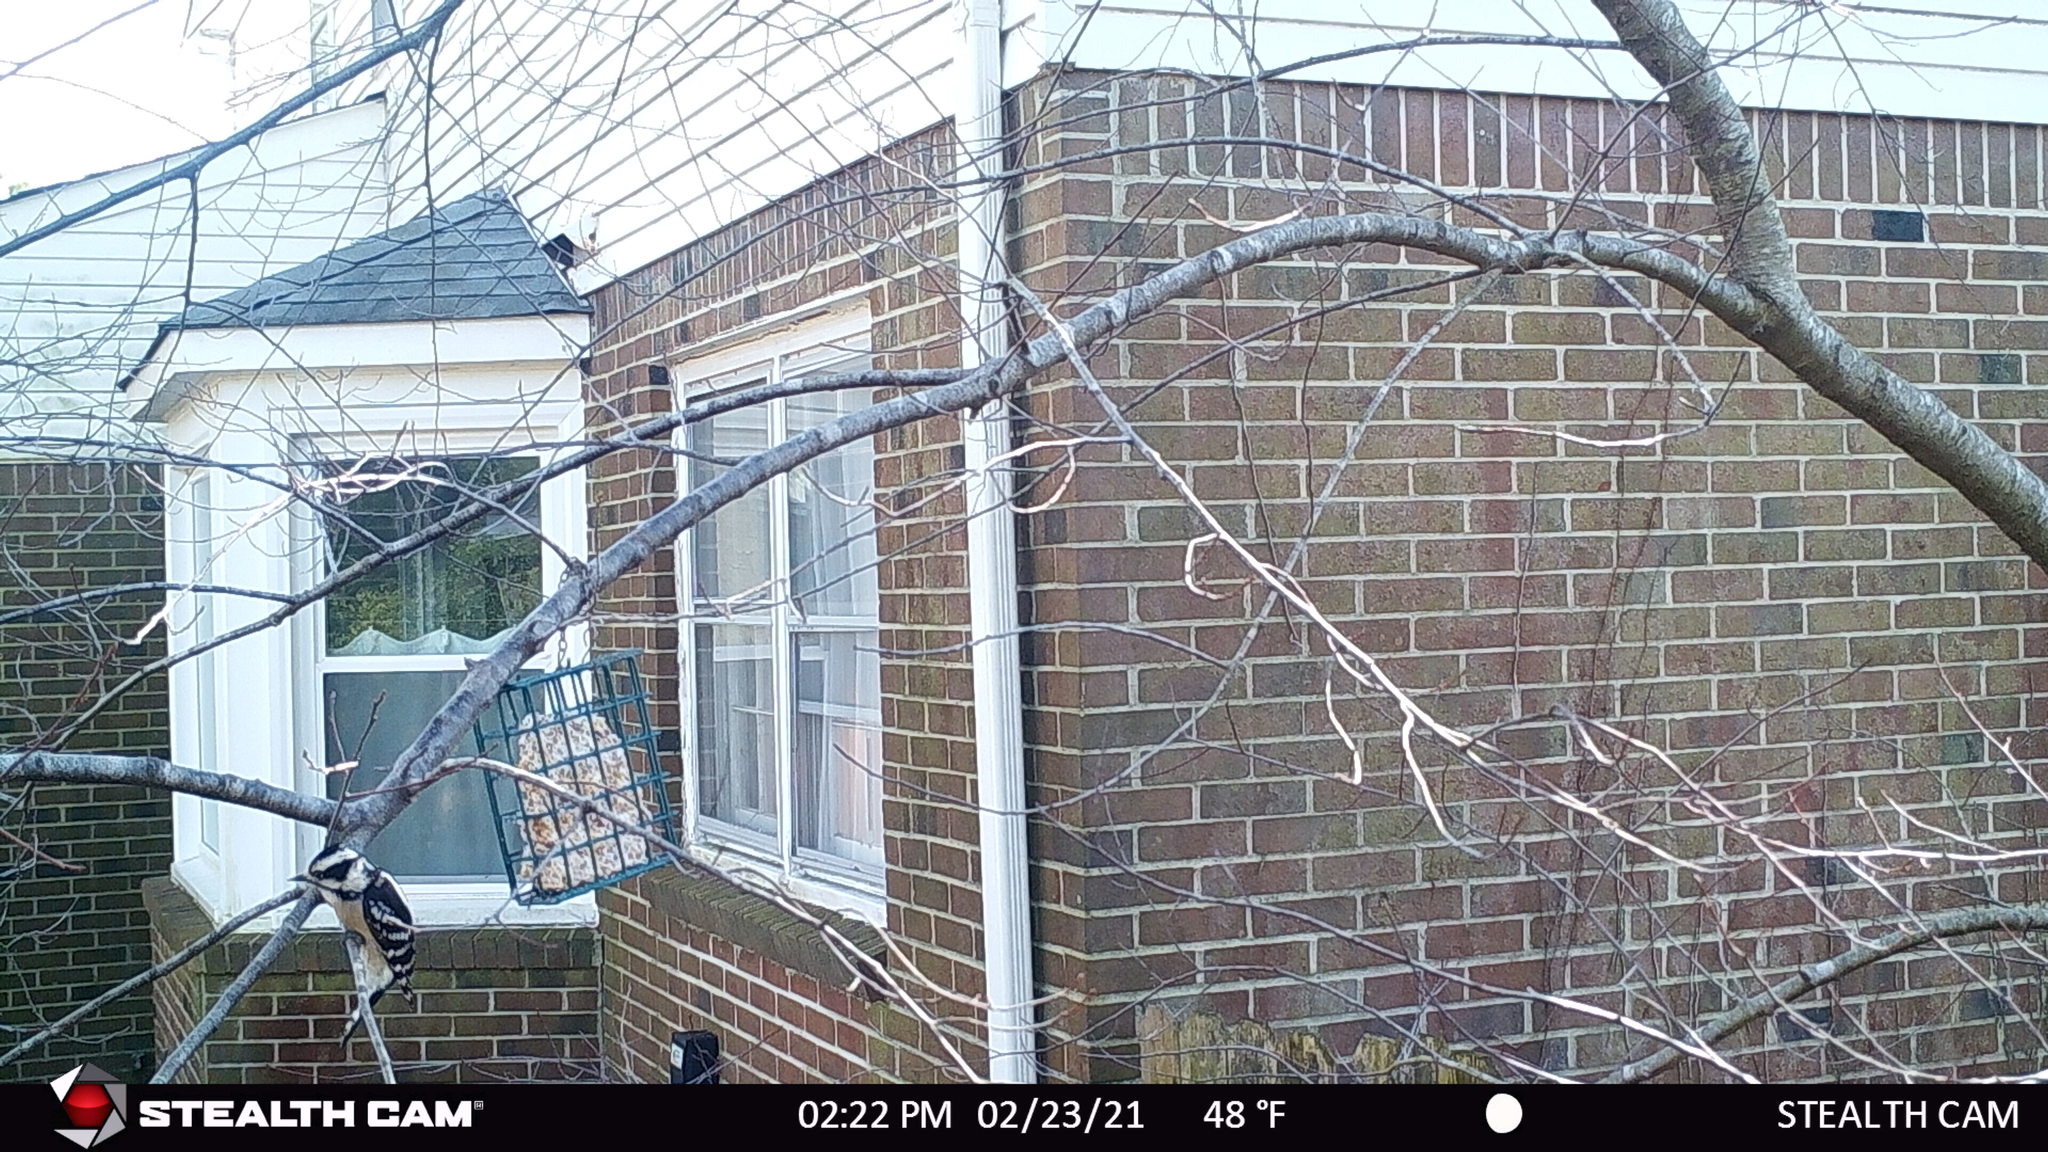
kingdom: Animalia
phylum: Chordata
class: Aves
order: Piciformes
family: Picidae
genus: Dryobates
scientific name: Dryobates pubescens
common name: Downy woodpecker
